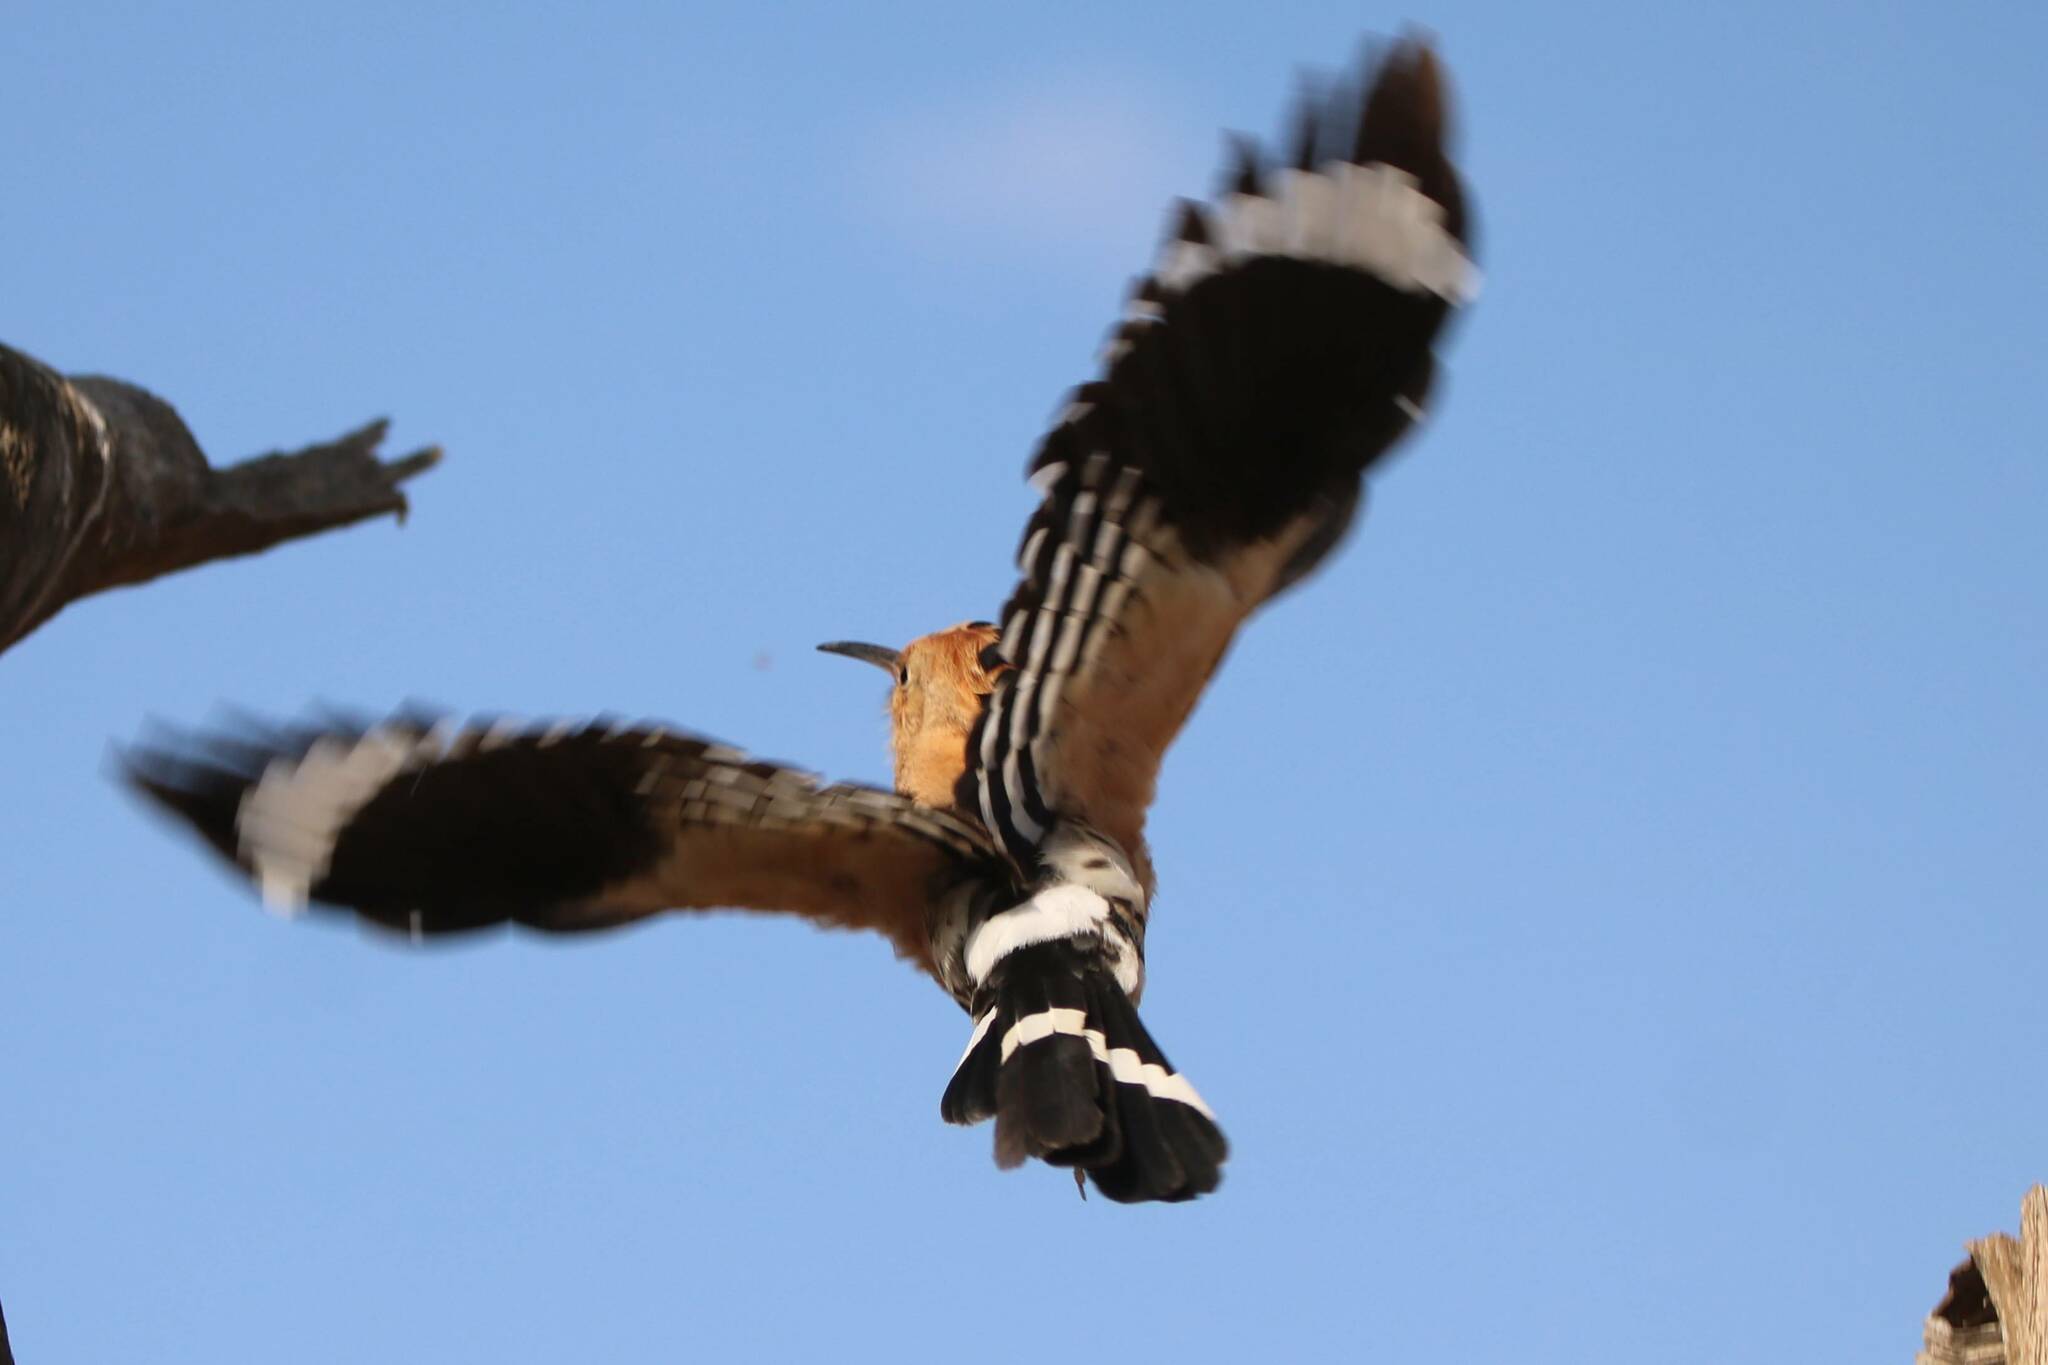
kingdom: Animalia
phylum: Chordata
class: Aves
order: Bucerotiformes
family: Upupidae
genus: Upupa
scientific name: Upupa epops
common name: Eurasian hoopoe
